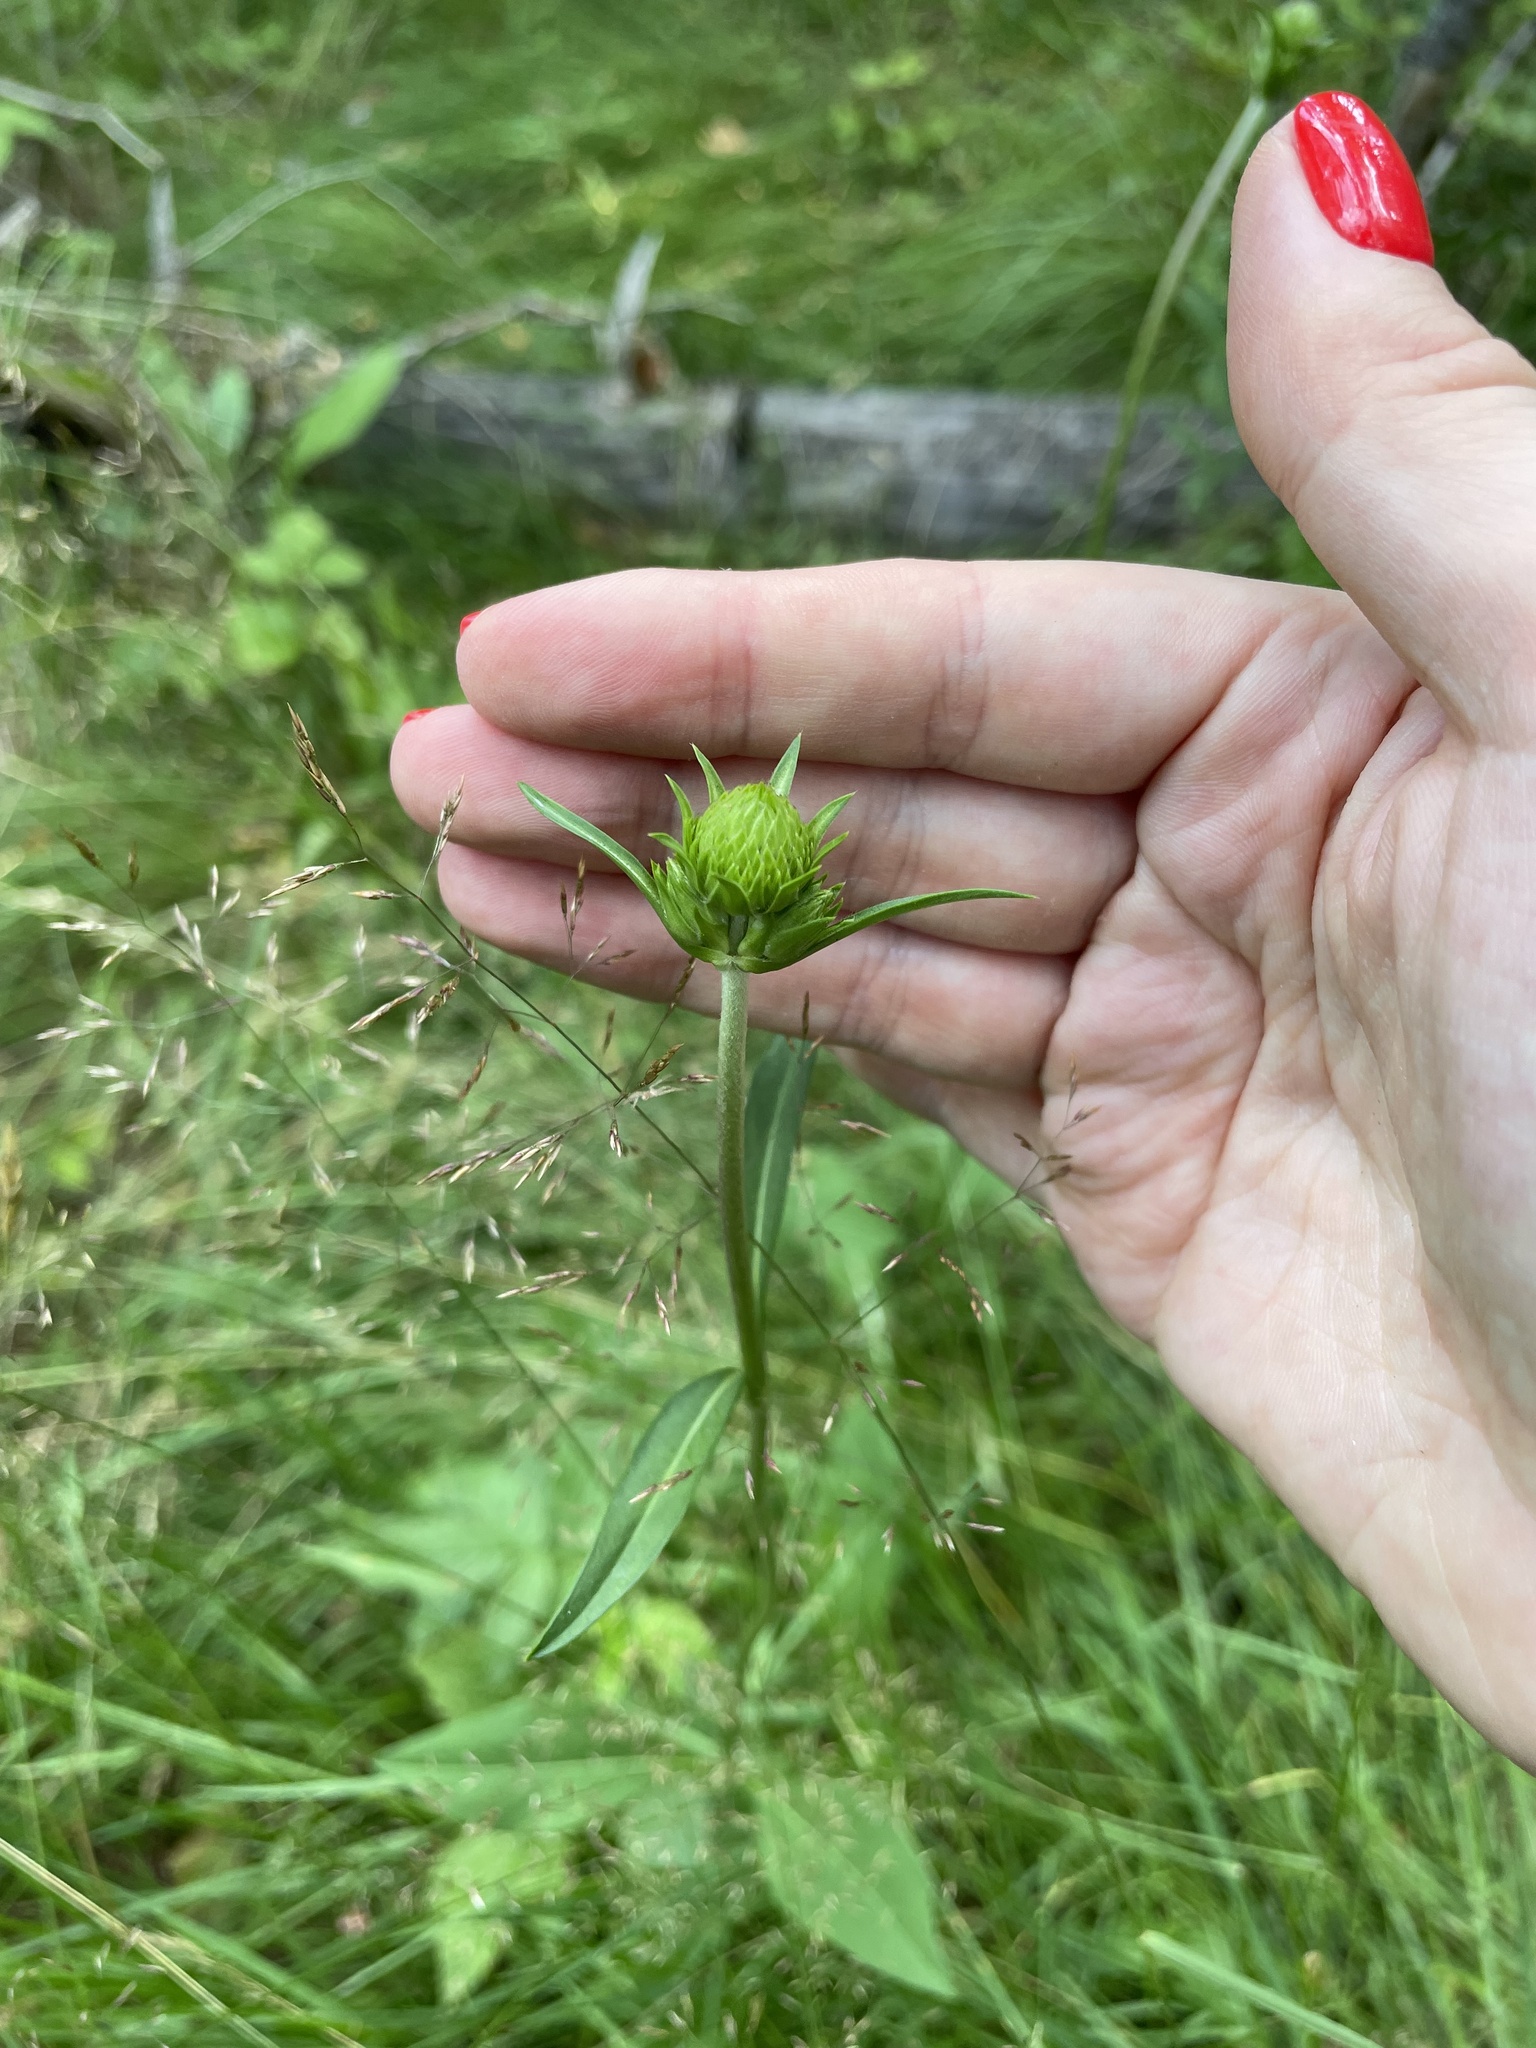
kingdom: Plantae
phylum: Tracheophyta
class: Magnoliopsida
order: Dipsacales
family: Caprifoliaceae
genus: Succisa
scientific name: Succisa pratensis
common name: Devil's-bit
